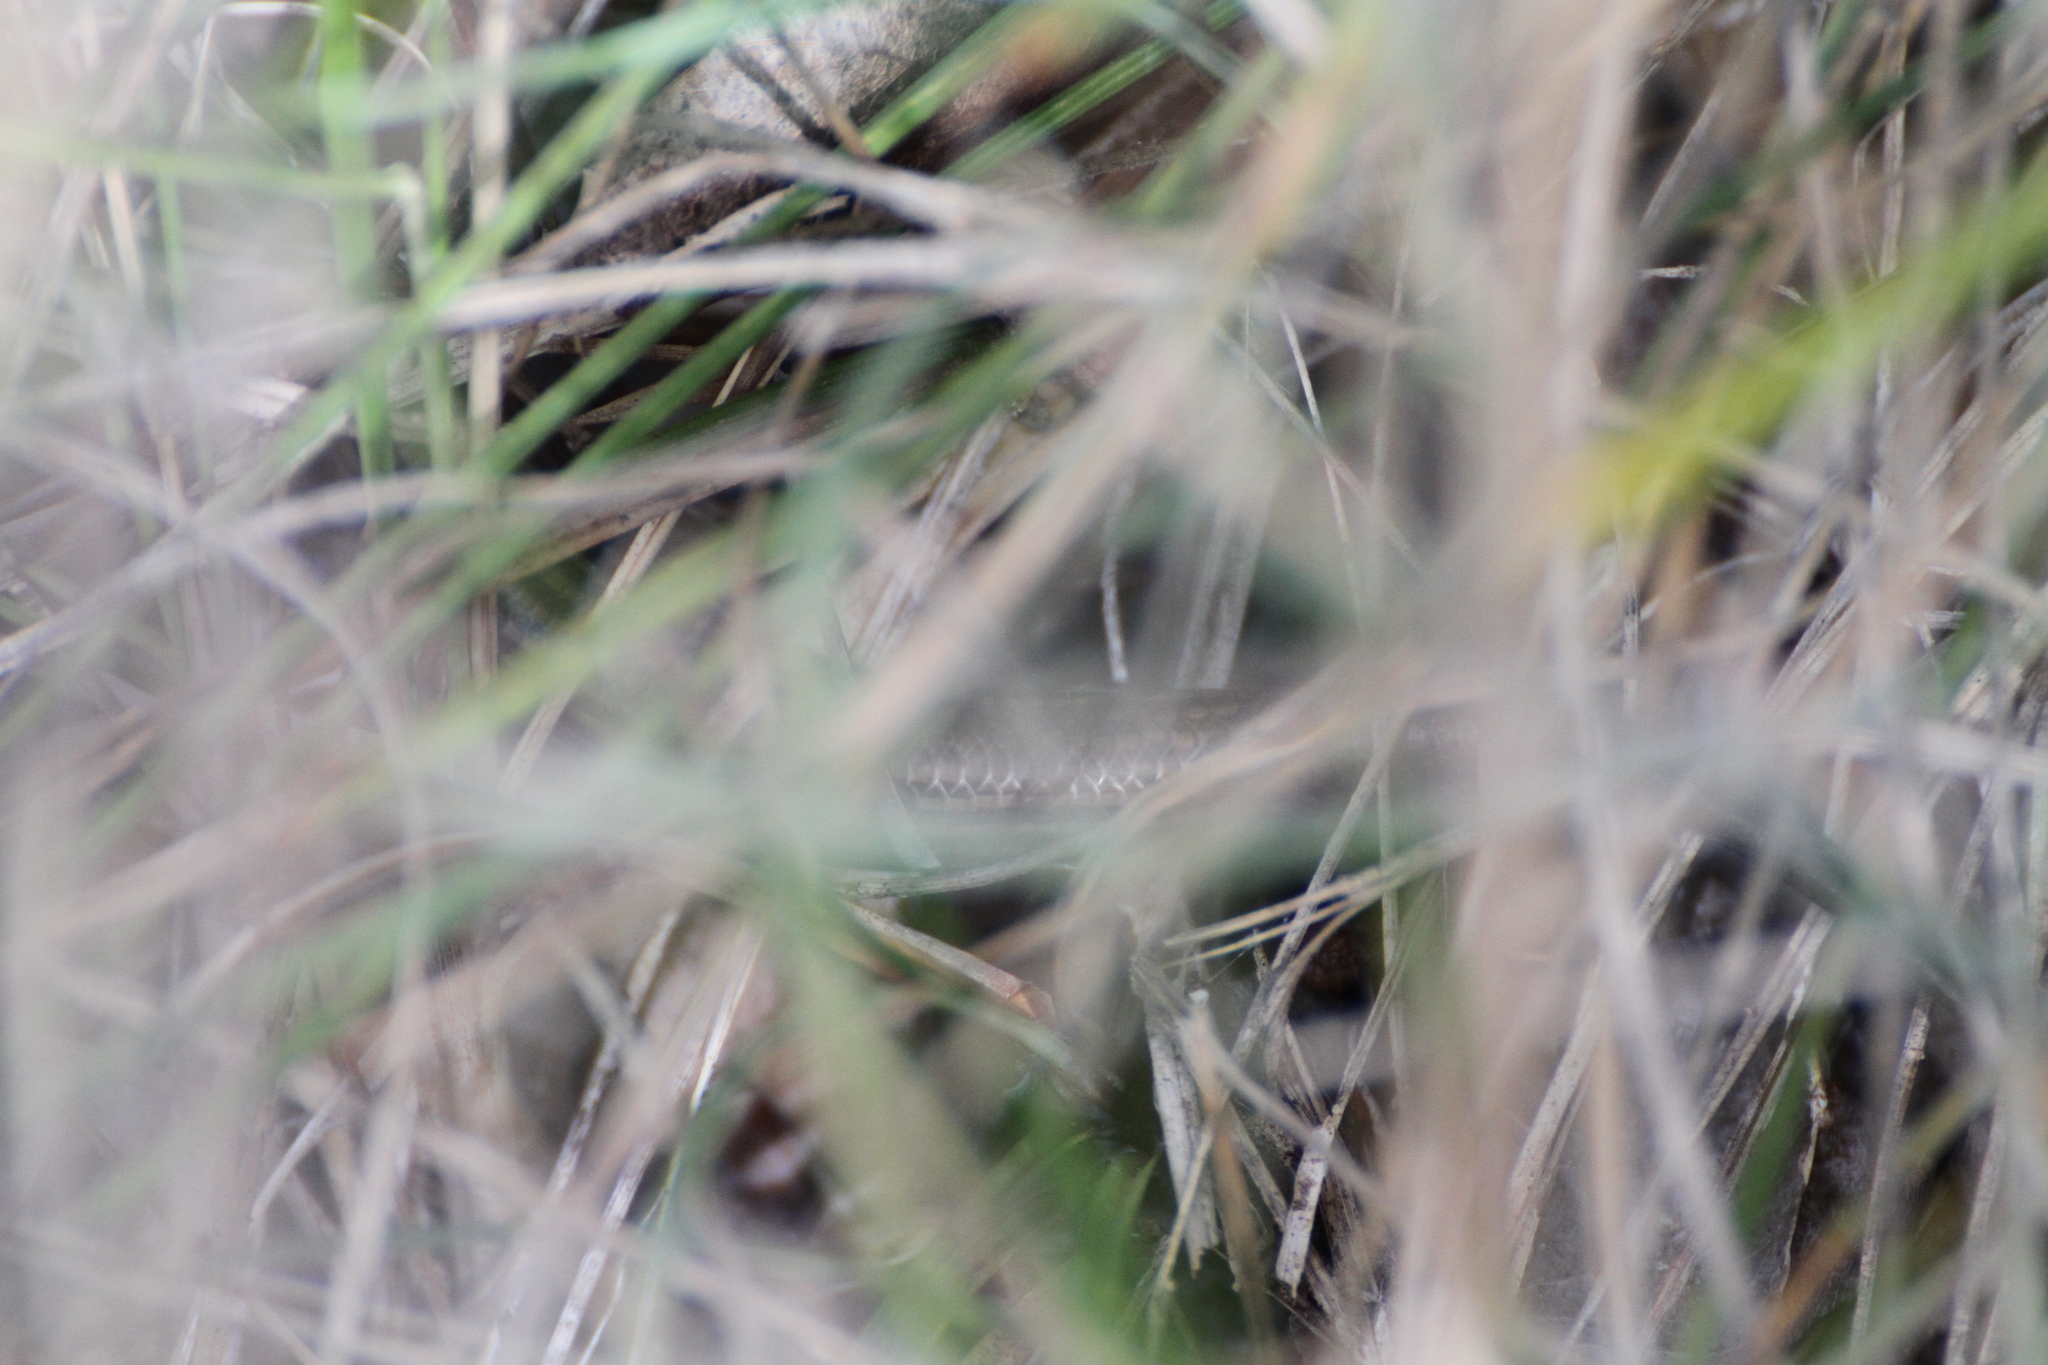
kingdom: Animalia
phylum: Chordata
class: Squamata
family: Scincidae
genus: Chalcides
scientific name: Chalcides striatus
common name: Western (or iberian) three-toed skink
